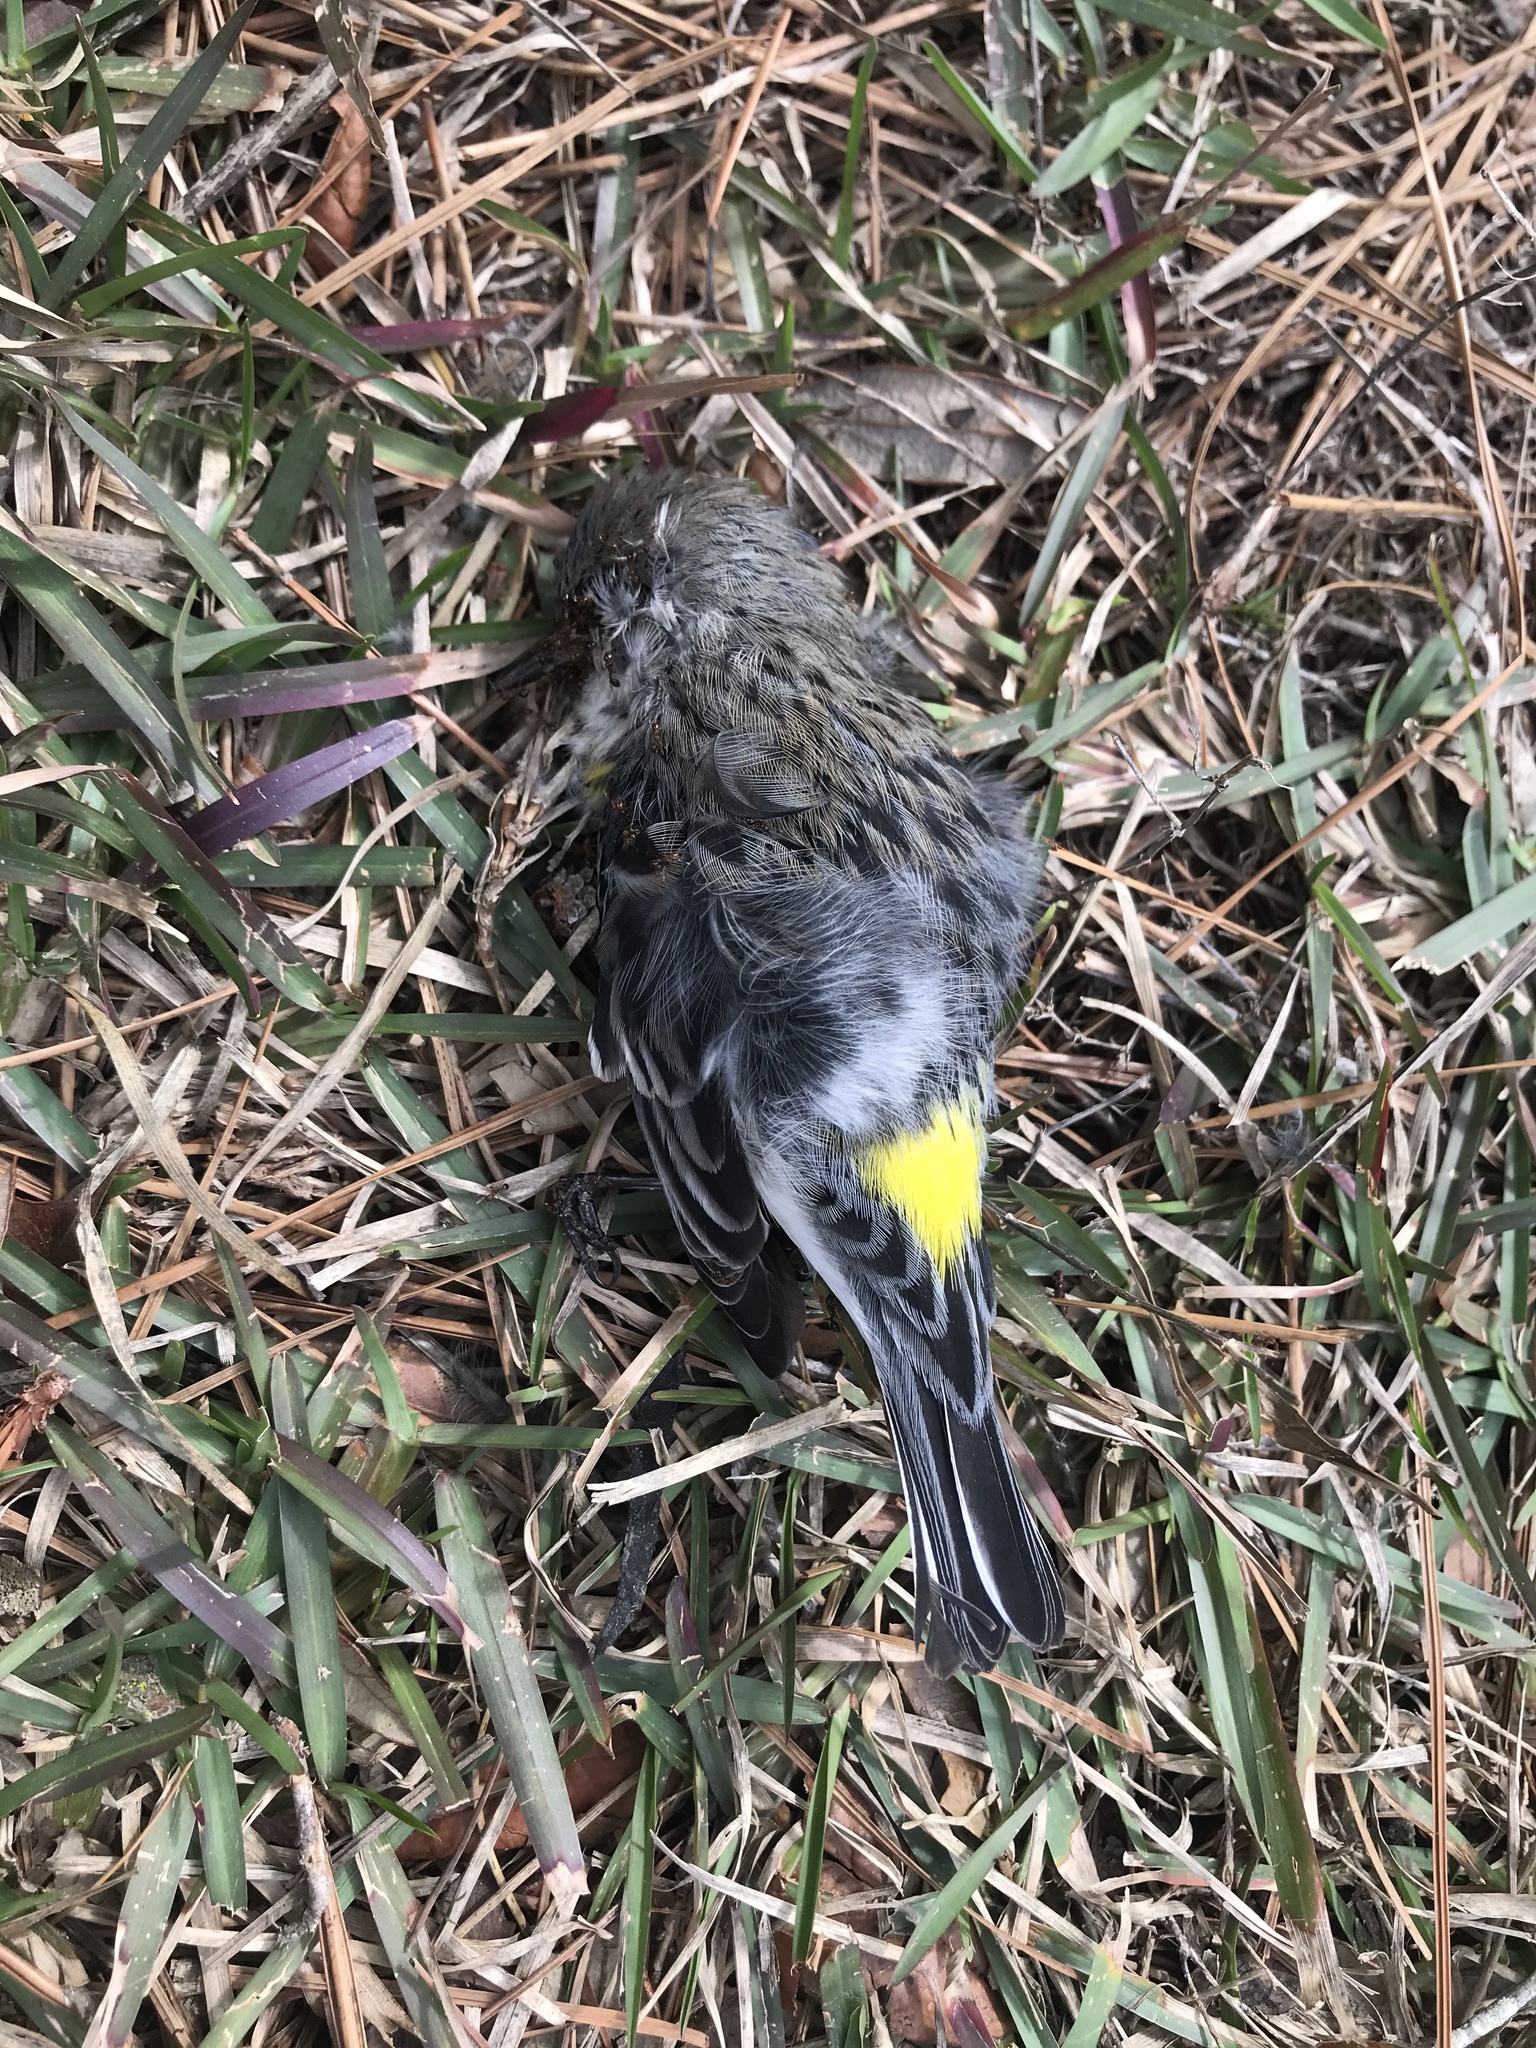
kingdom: Animalia
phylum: Chordata
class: Aves
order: Passeriformes
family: Parulidae
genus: Setophaga
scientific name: Setophaga coronata
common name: Myrtle warbler
